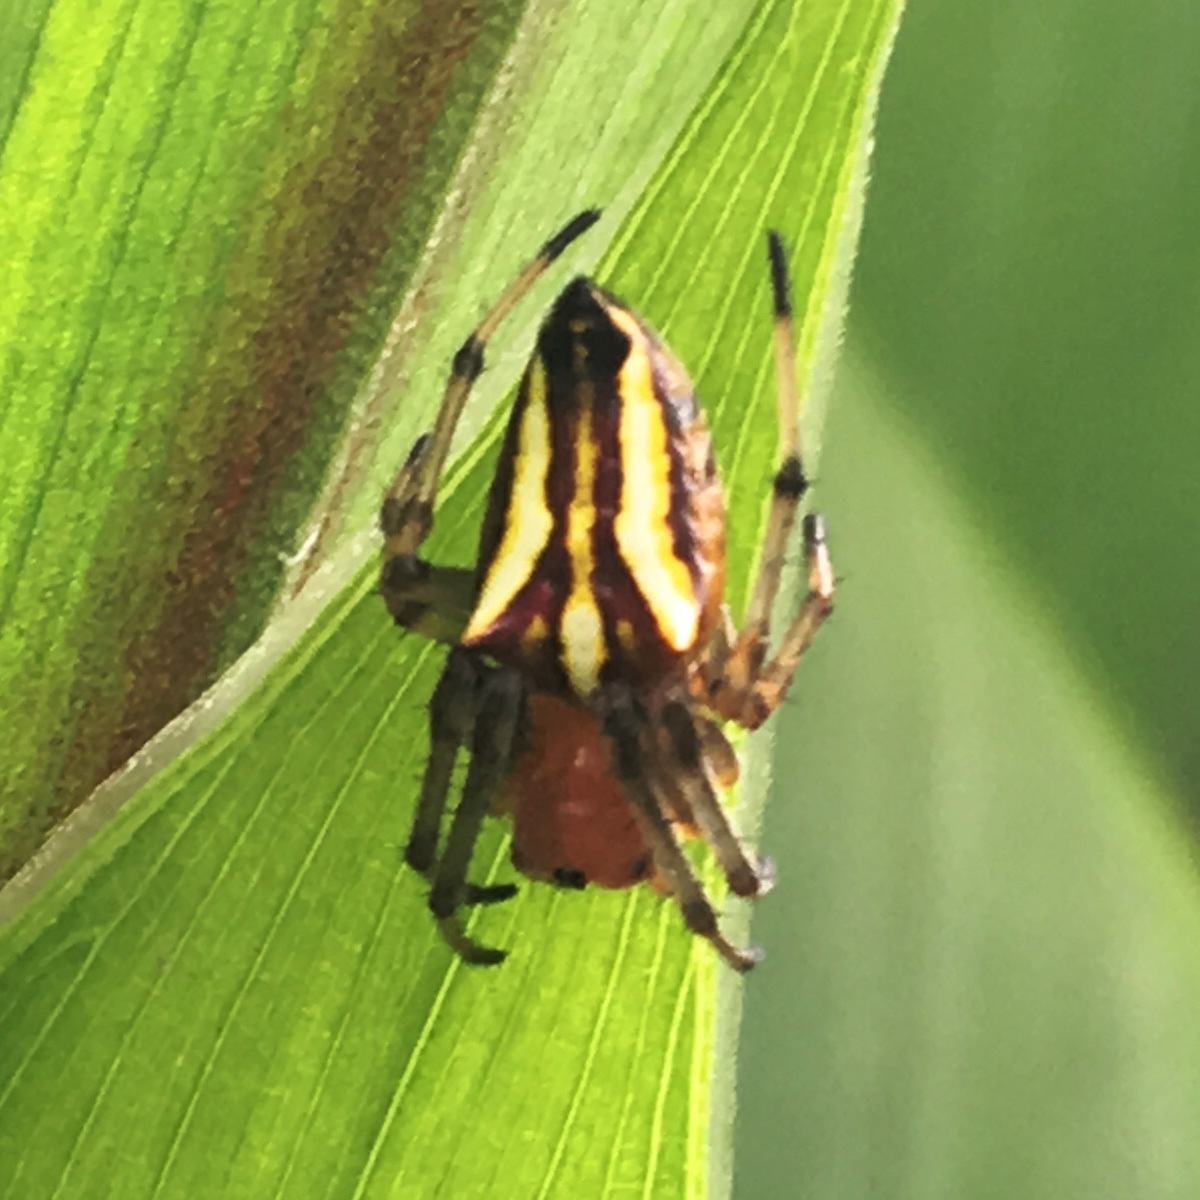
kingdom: Animalia
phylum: Arthropoda
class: Arachnida
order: Araneae
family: Araneidae
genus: Alpaida
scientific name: Alpaida bicornuta
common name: Orb weavers
